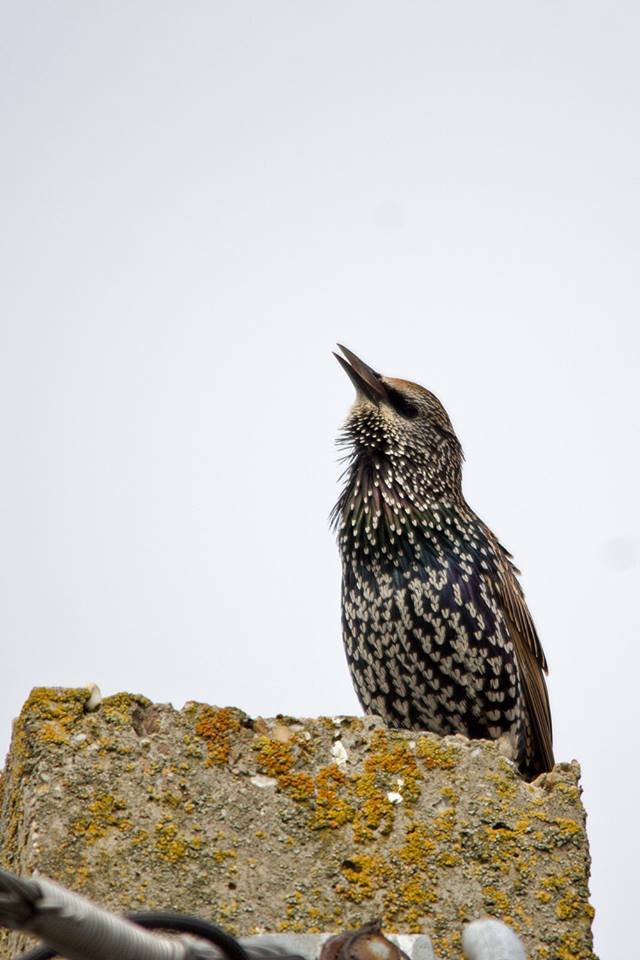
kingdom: Animalia
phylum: Chordata
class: Aves
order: Passeriformes
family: Sturnidae
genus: Sturnus
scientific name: Sturnus vulgaris
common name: Common starling
